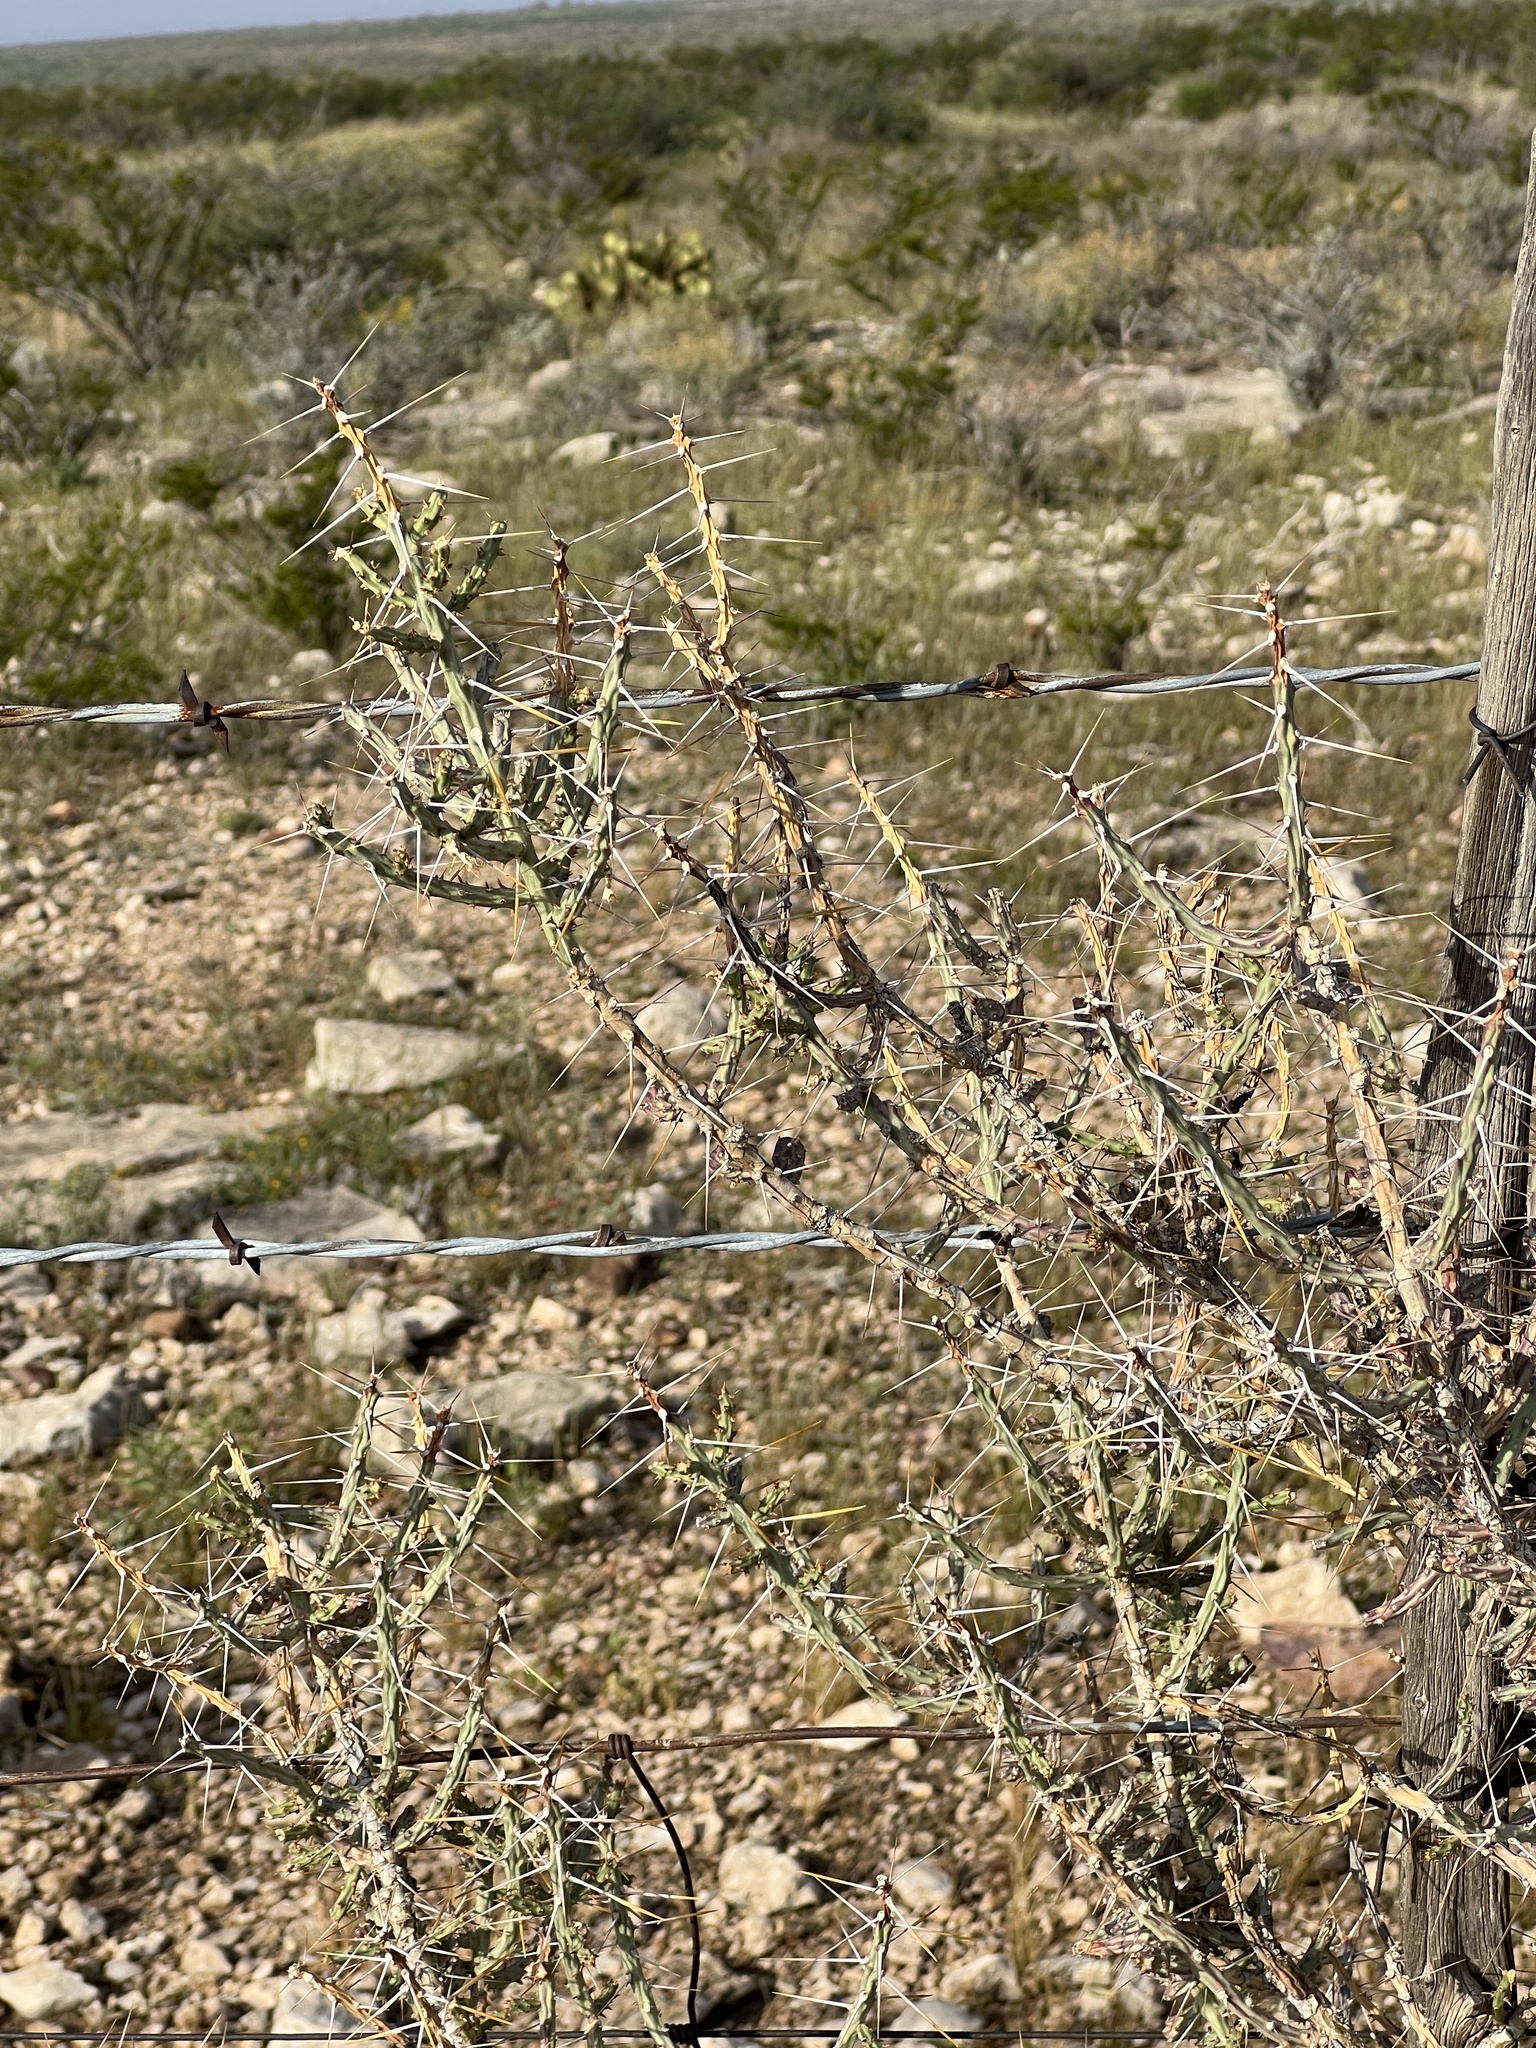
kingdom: Plantae
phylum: Tracheophyta
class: Magnoliopsida
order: Caryophyllales
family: Cactaceae
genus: Cylindropuntia
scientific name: Cylindropuntia leptocaulis
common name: Christmas cactus
